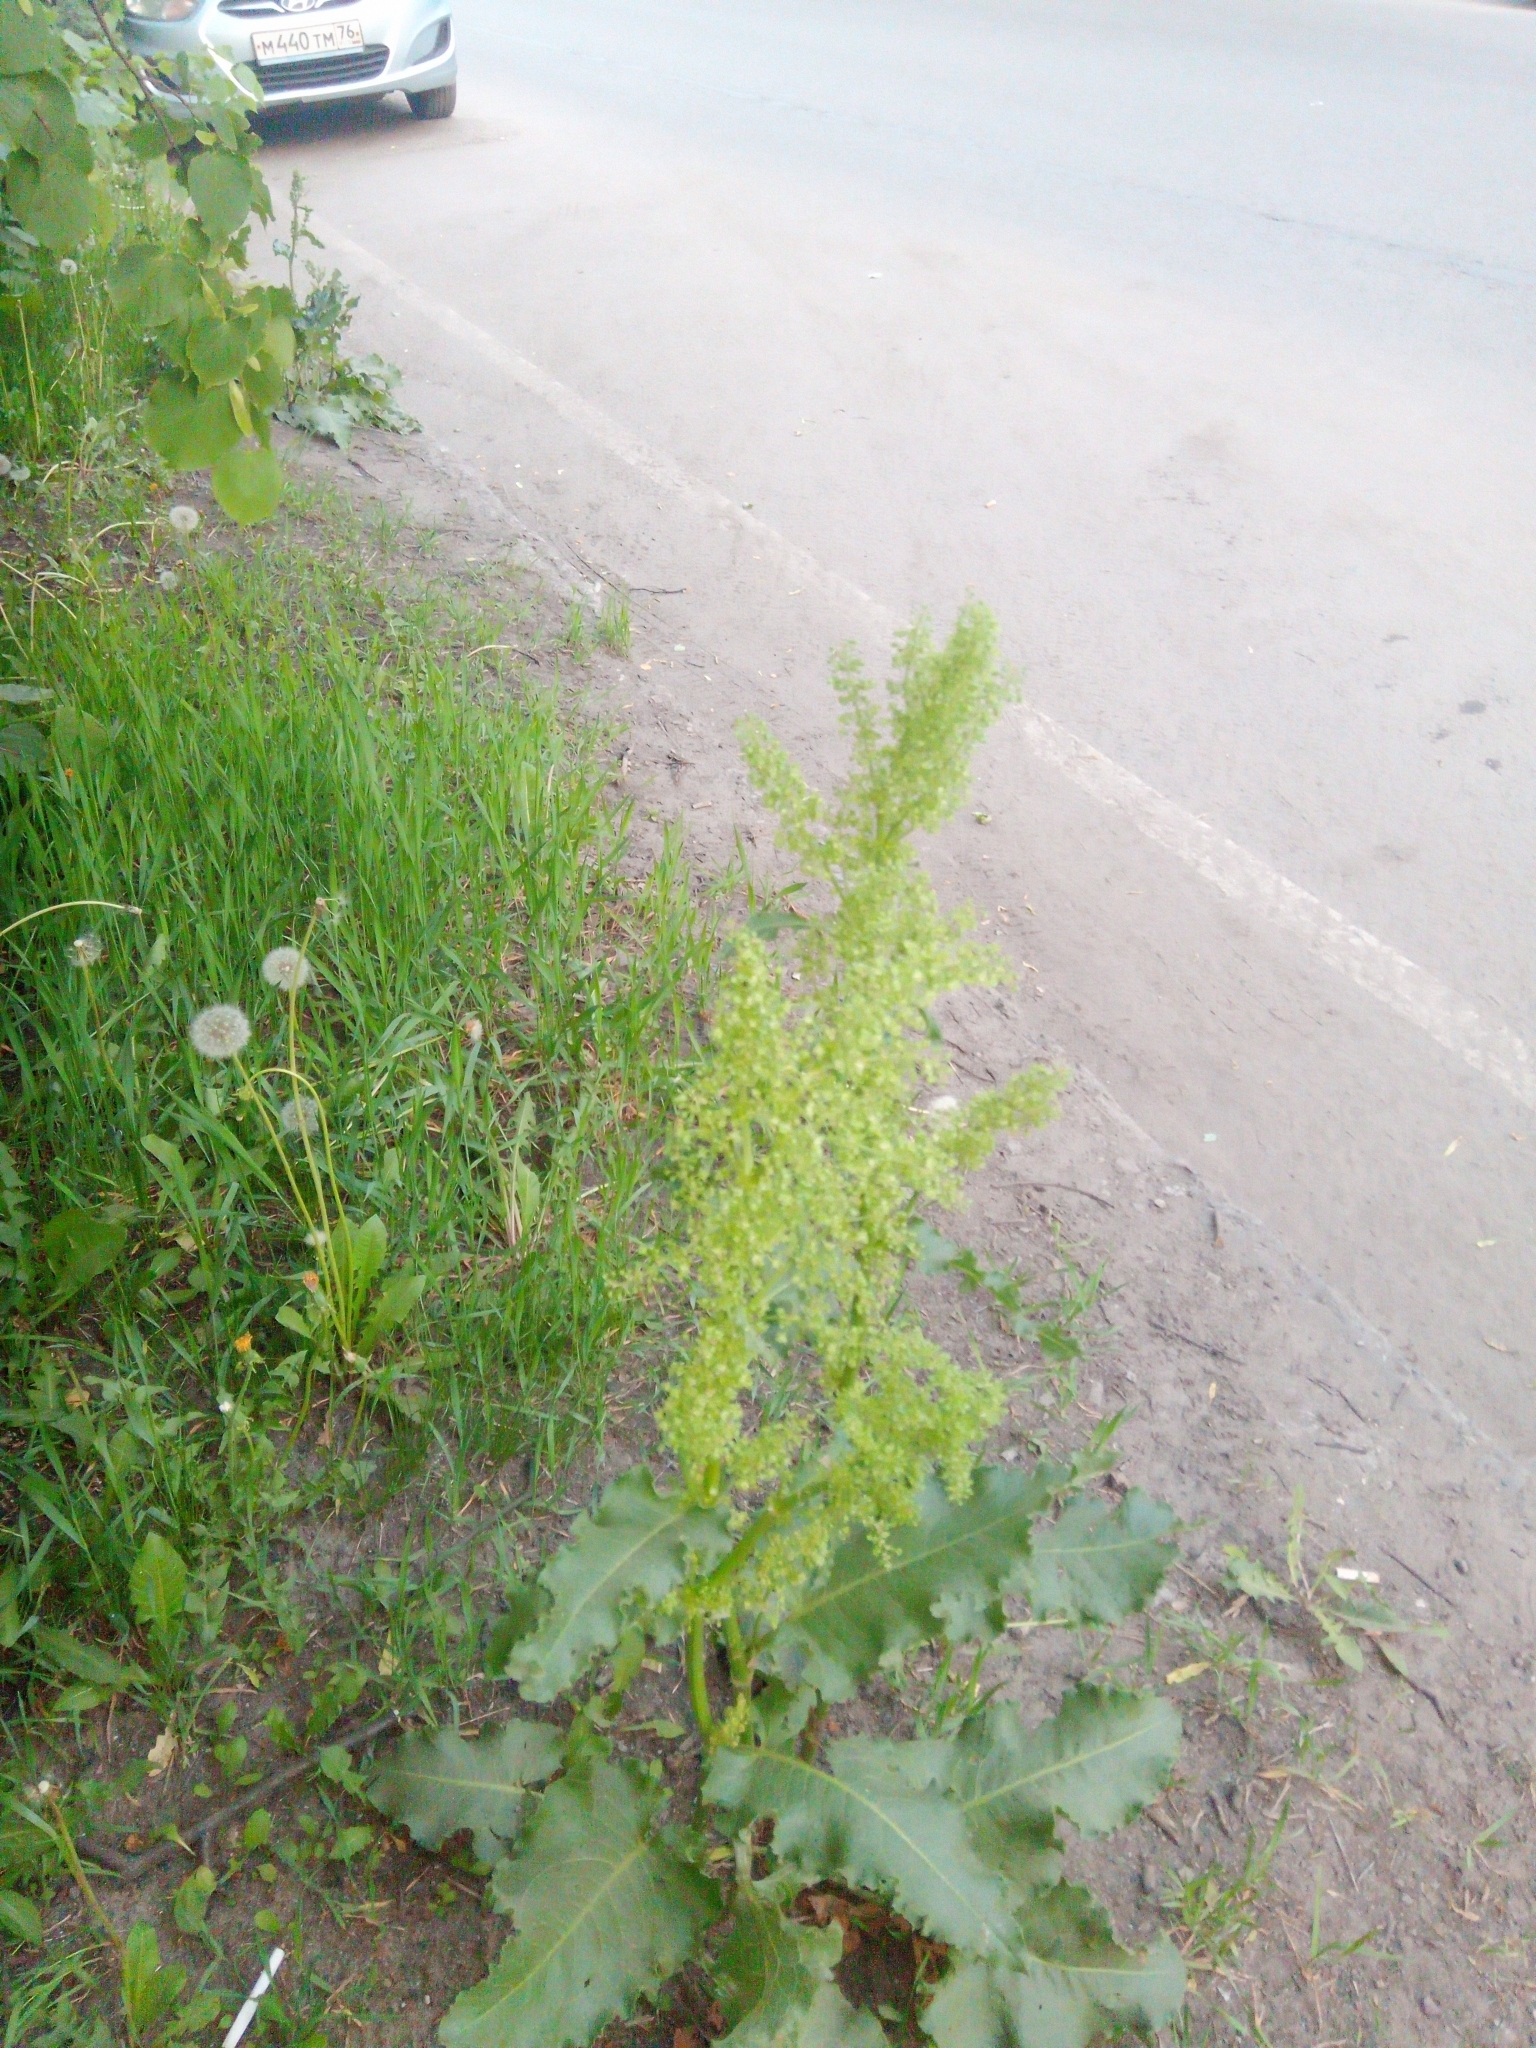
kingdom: Plantae
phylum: Tracheophyta
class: Magnoliopsida
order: Caryophyllales
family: Polygonaceae
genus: Rumex
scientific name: Rumex confertus
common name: Russian dock
